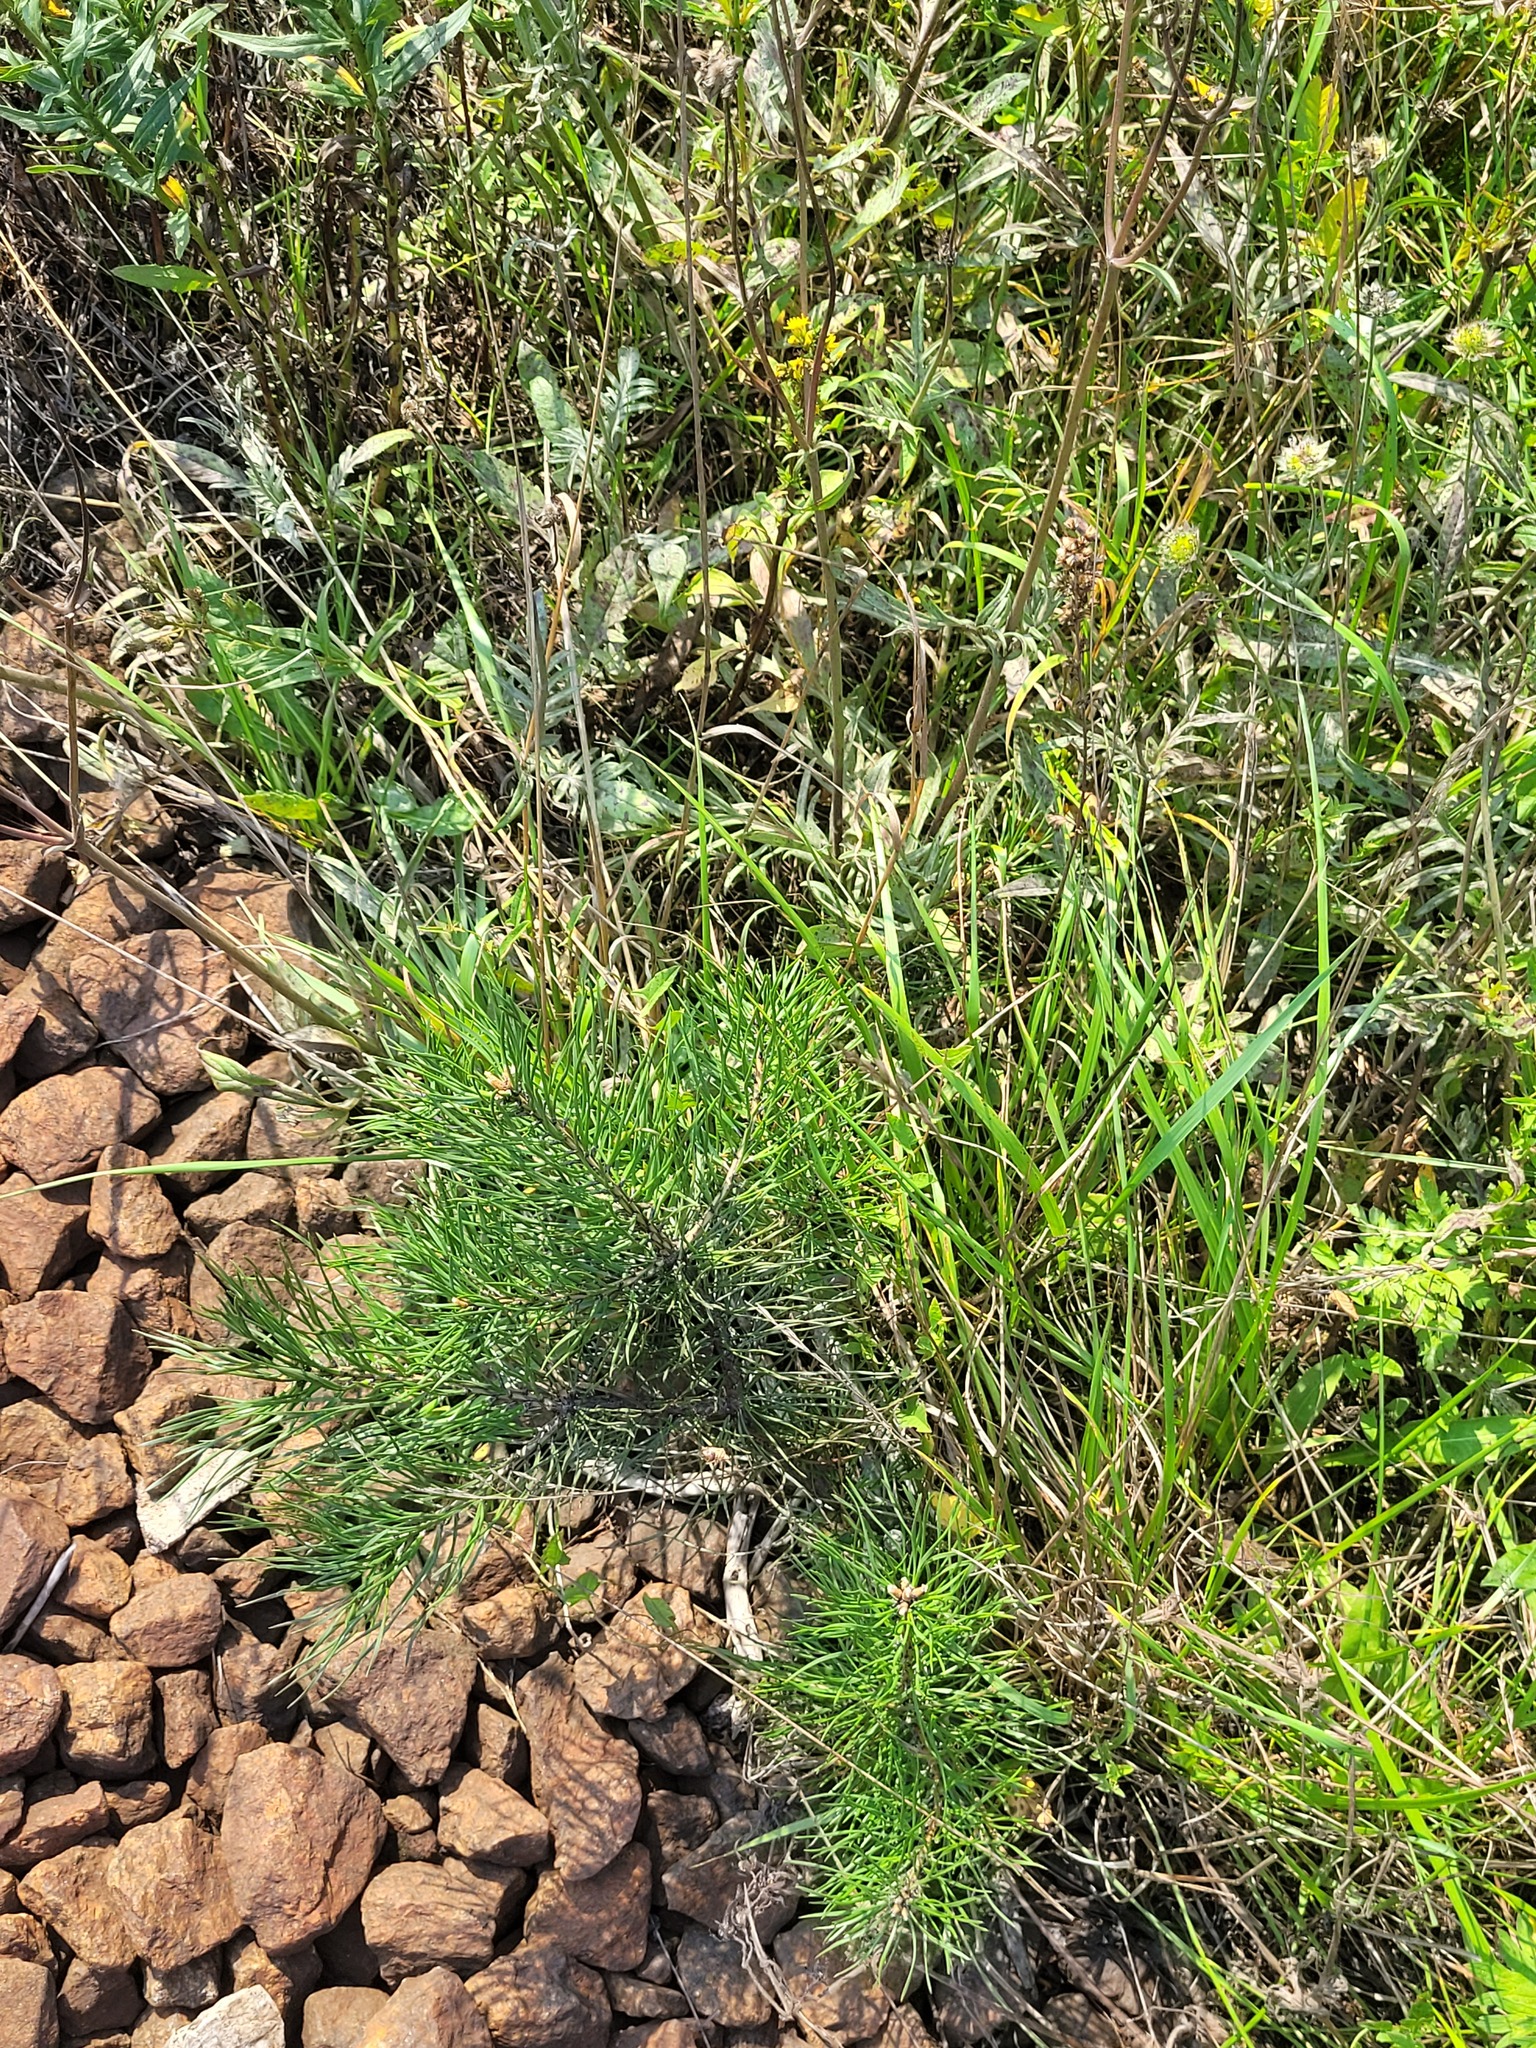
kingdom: Plantae
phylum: Tracheophyta
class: Pinopsida
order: Pinales
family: Pinaceae
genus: Pinus
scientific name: Pinus sylvestris
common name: Scots pine
